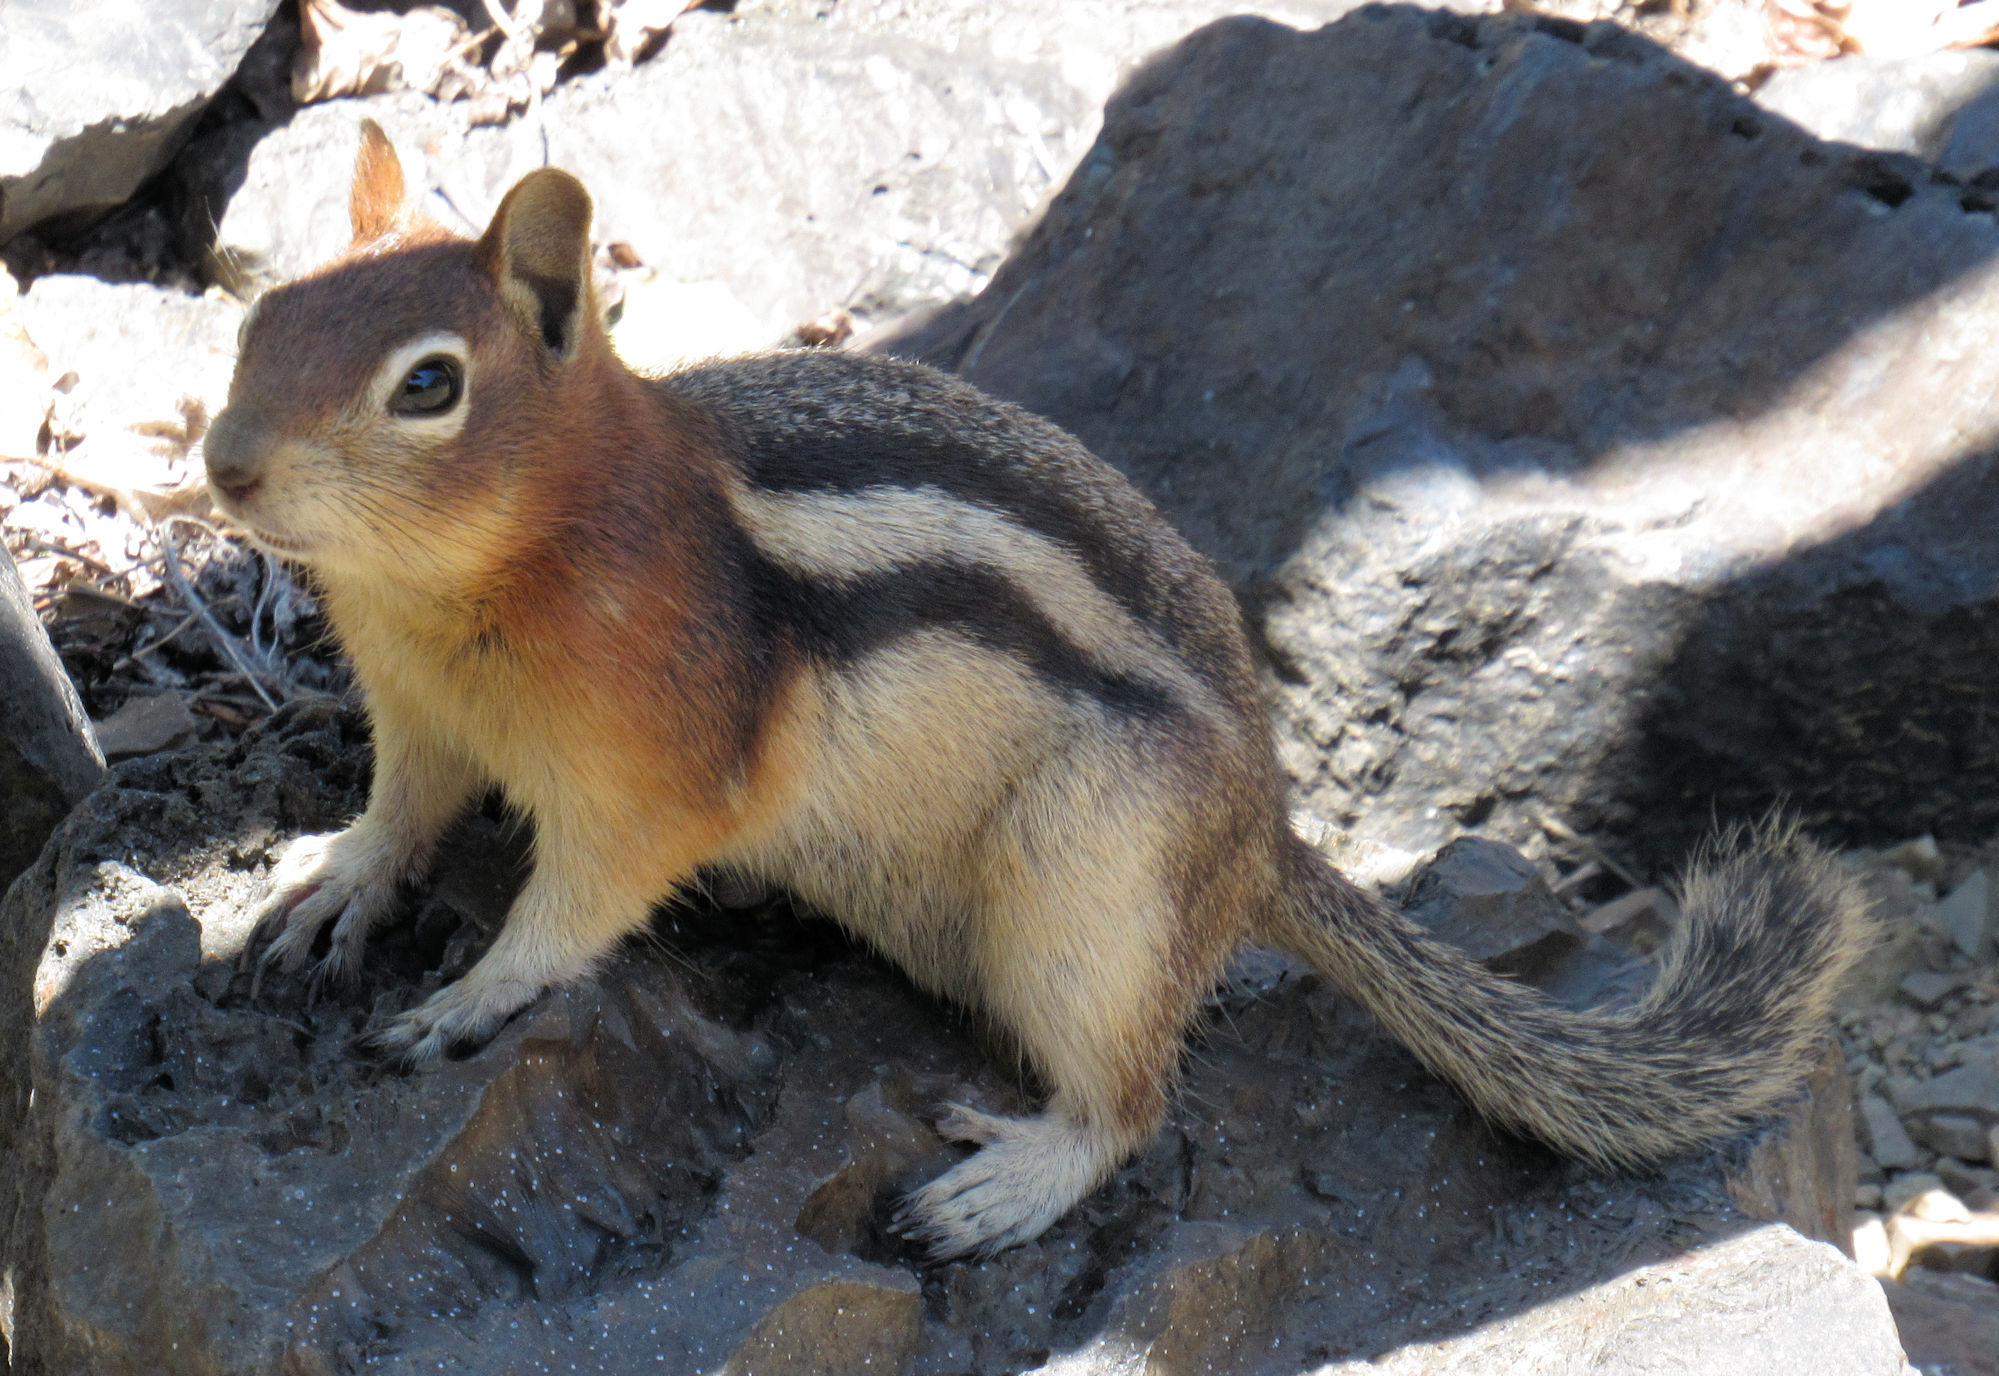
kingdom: Animalia
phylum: Chordata
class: Mammalia
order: Rodentia
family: Sciuridae
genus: Callospermophilus
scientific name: Callospermophilus lateralis
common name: Golden-mantled ground squirrel
